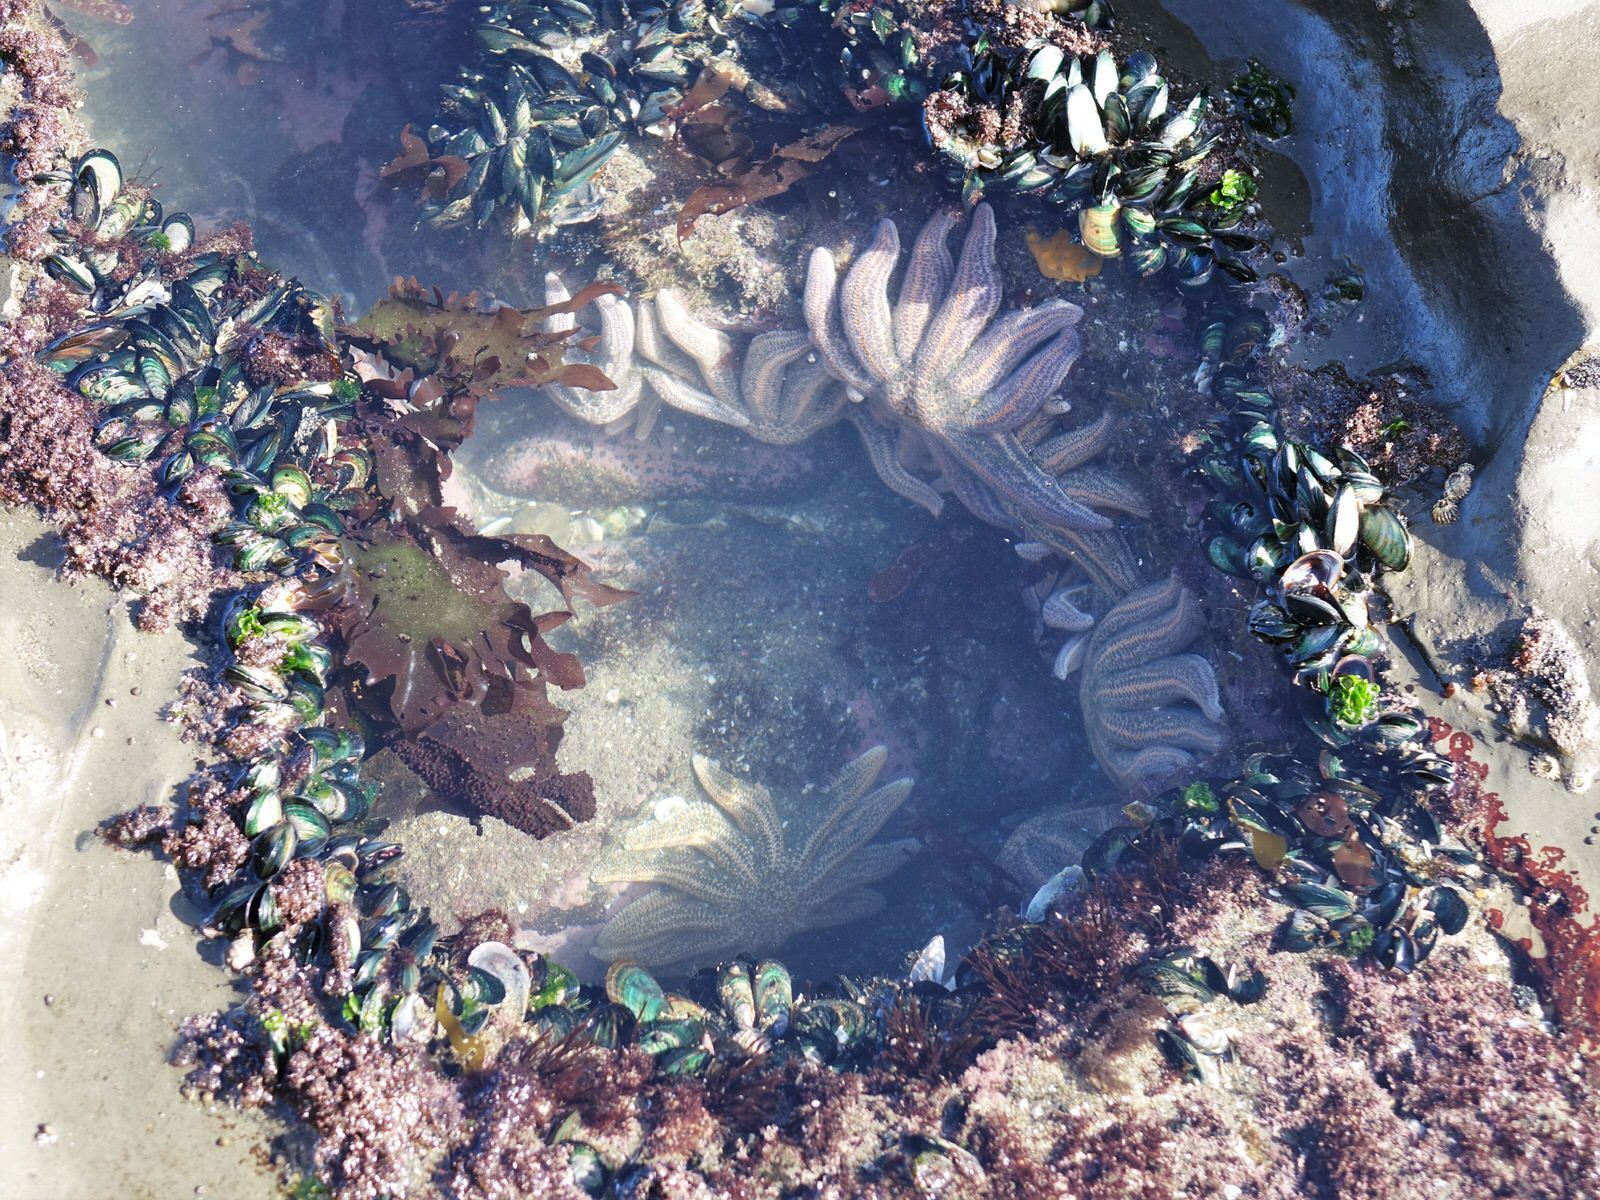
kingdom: Animalia
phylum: Echinodermata
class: Asteroidea
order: Forcipulatida
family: Stichasteridae
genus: Stichaster
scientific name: Stichaster australis
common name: Reef starfish
